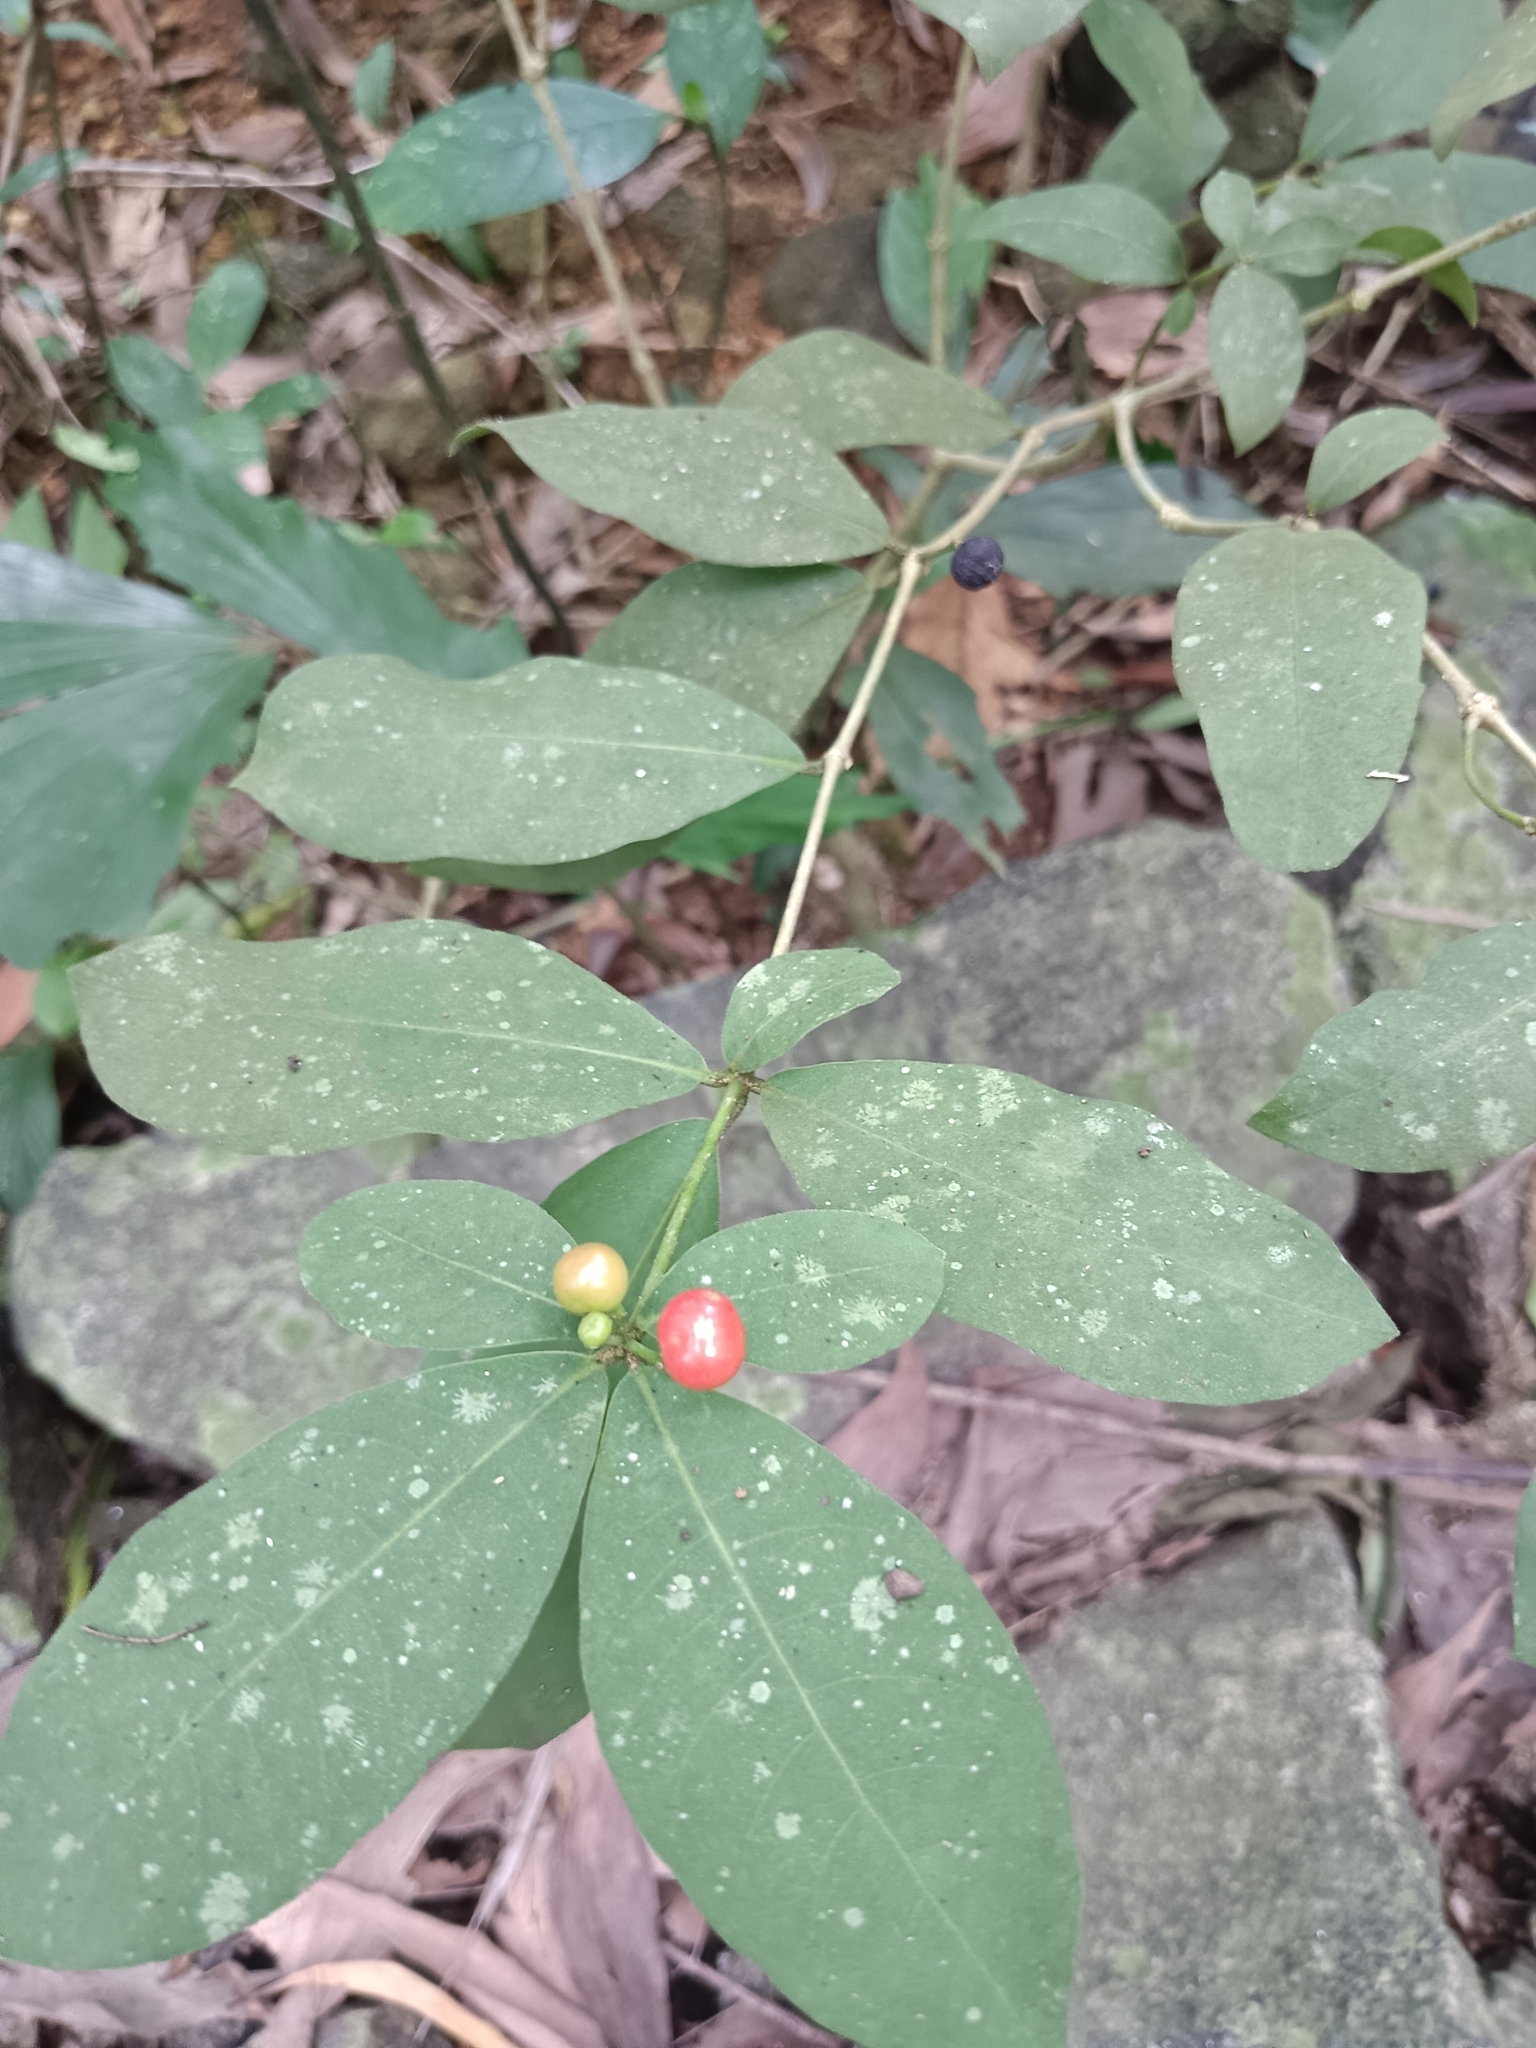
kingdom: Plantae
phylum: Tracheophyta
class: Magnoliopsida
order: Gentianales
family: Apocynaceae
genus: Rauvolfia
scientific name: Rauvolfia tetraphylla
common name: Four-leaf devil-pepper
